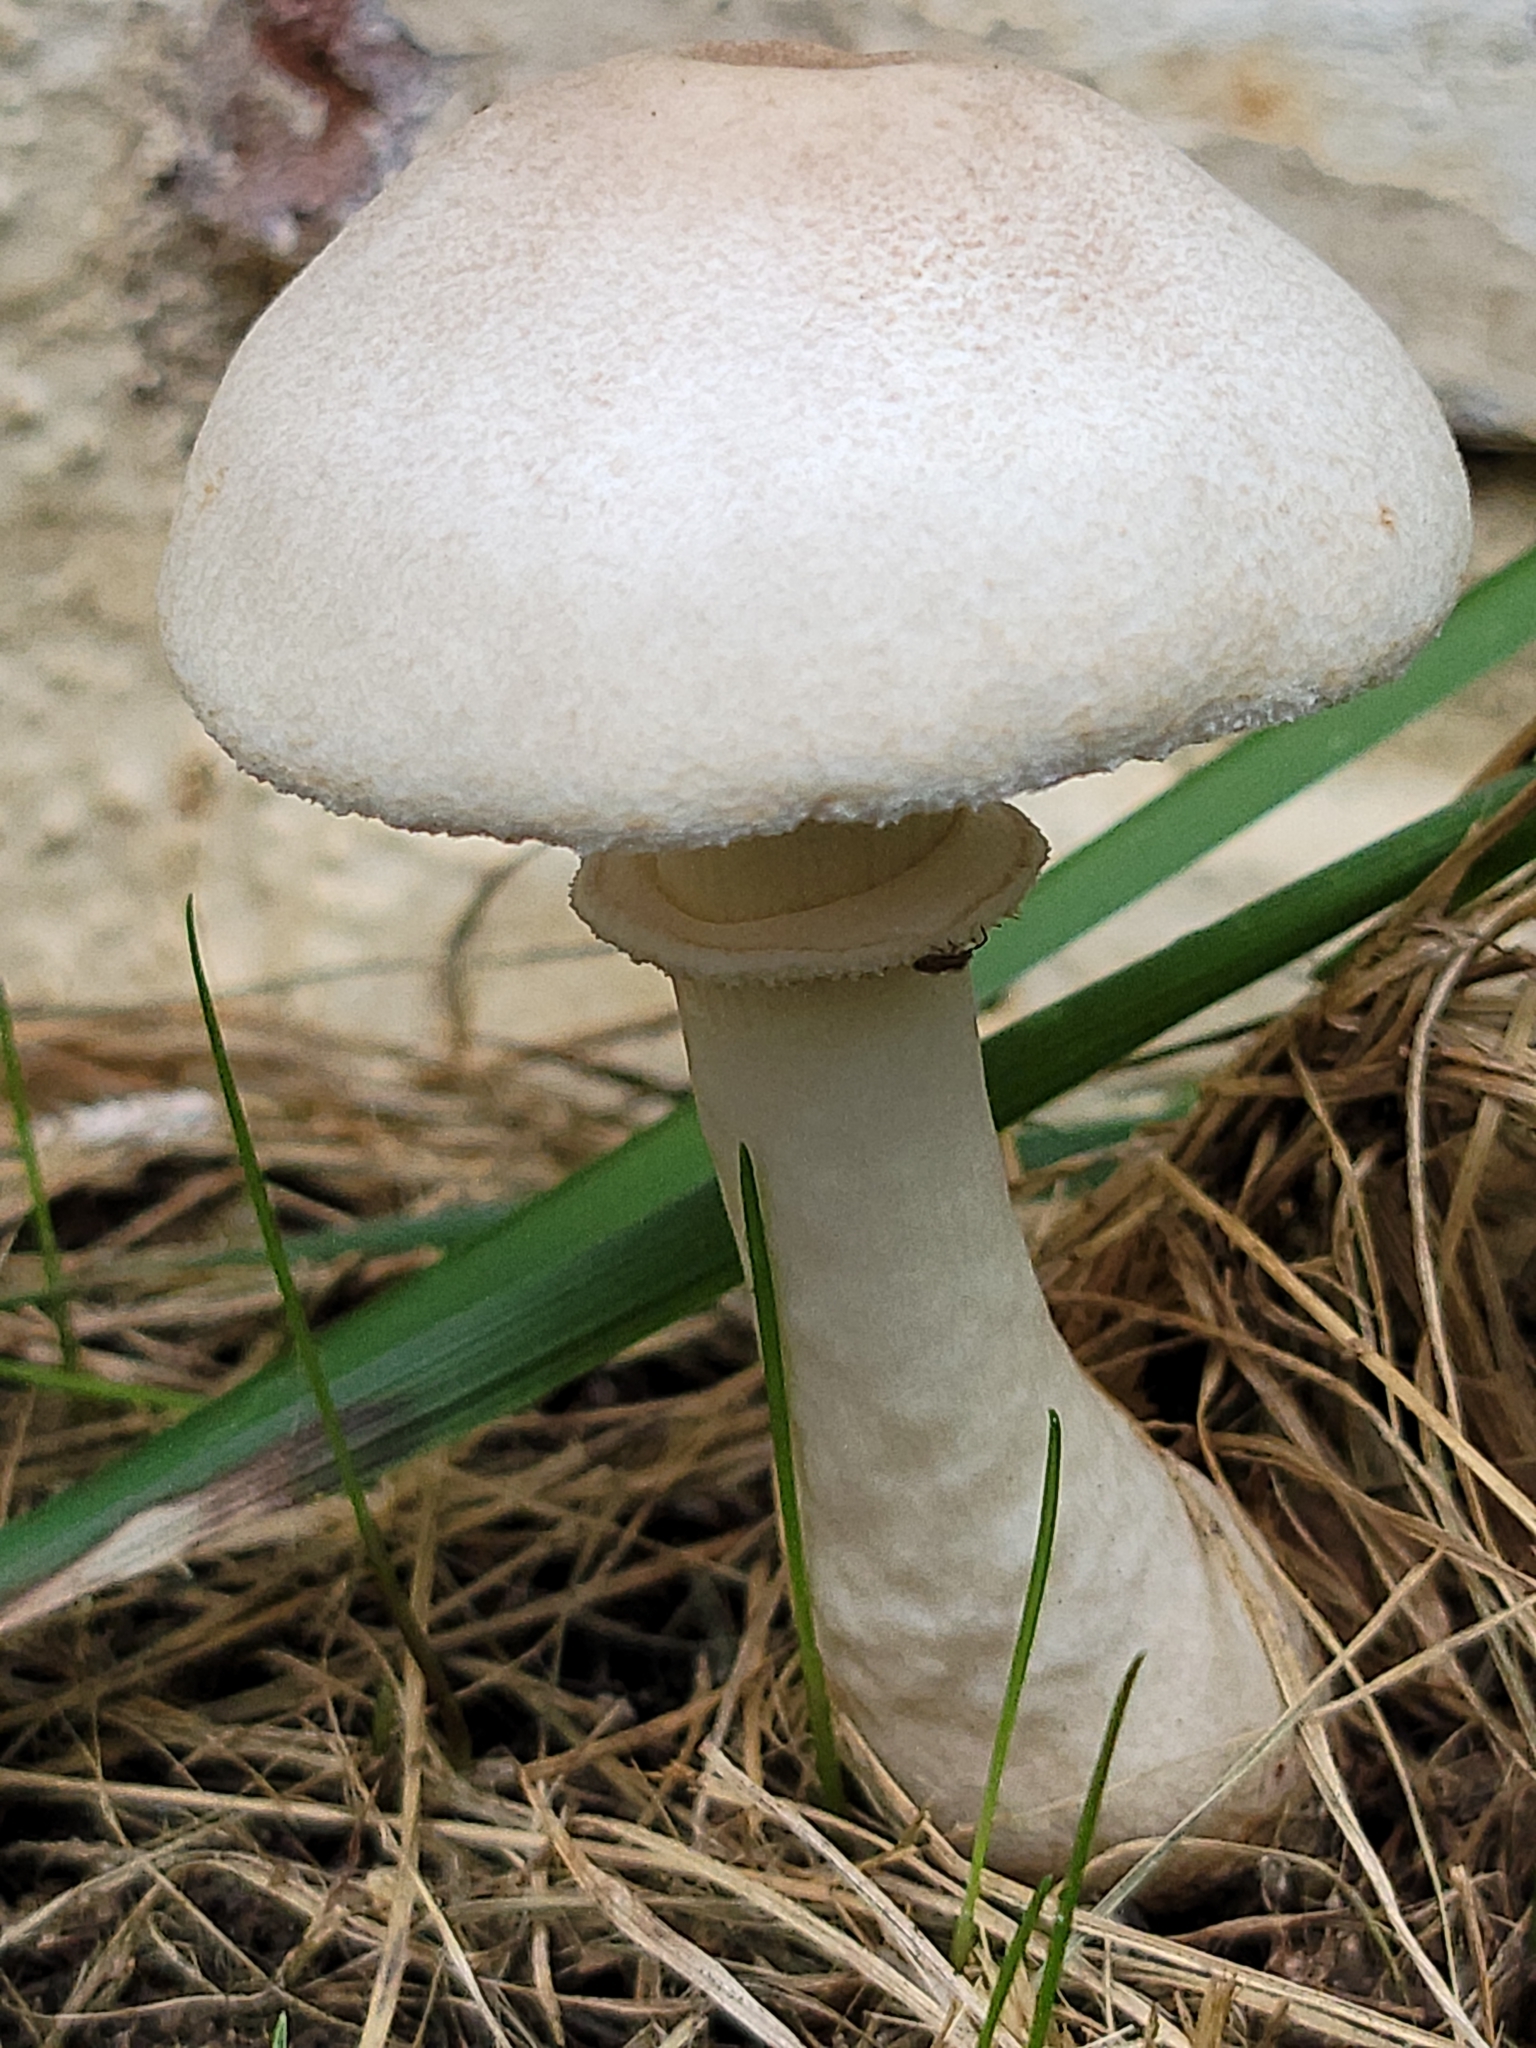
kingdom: Fungi
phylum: Basidiomycota
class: Agaricomycetes
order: Agaricales
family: Agaricaceae
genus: Leucoagaricus
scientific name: Leucoagaricus leucothites
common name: White dapperling
